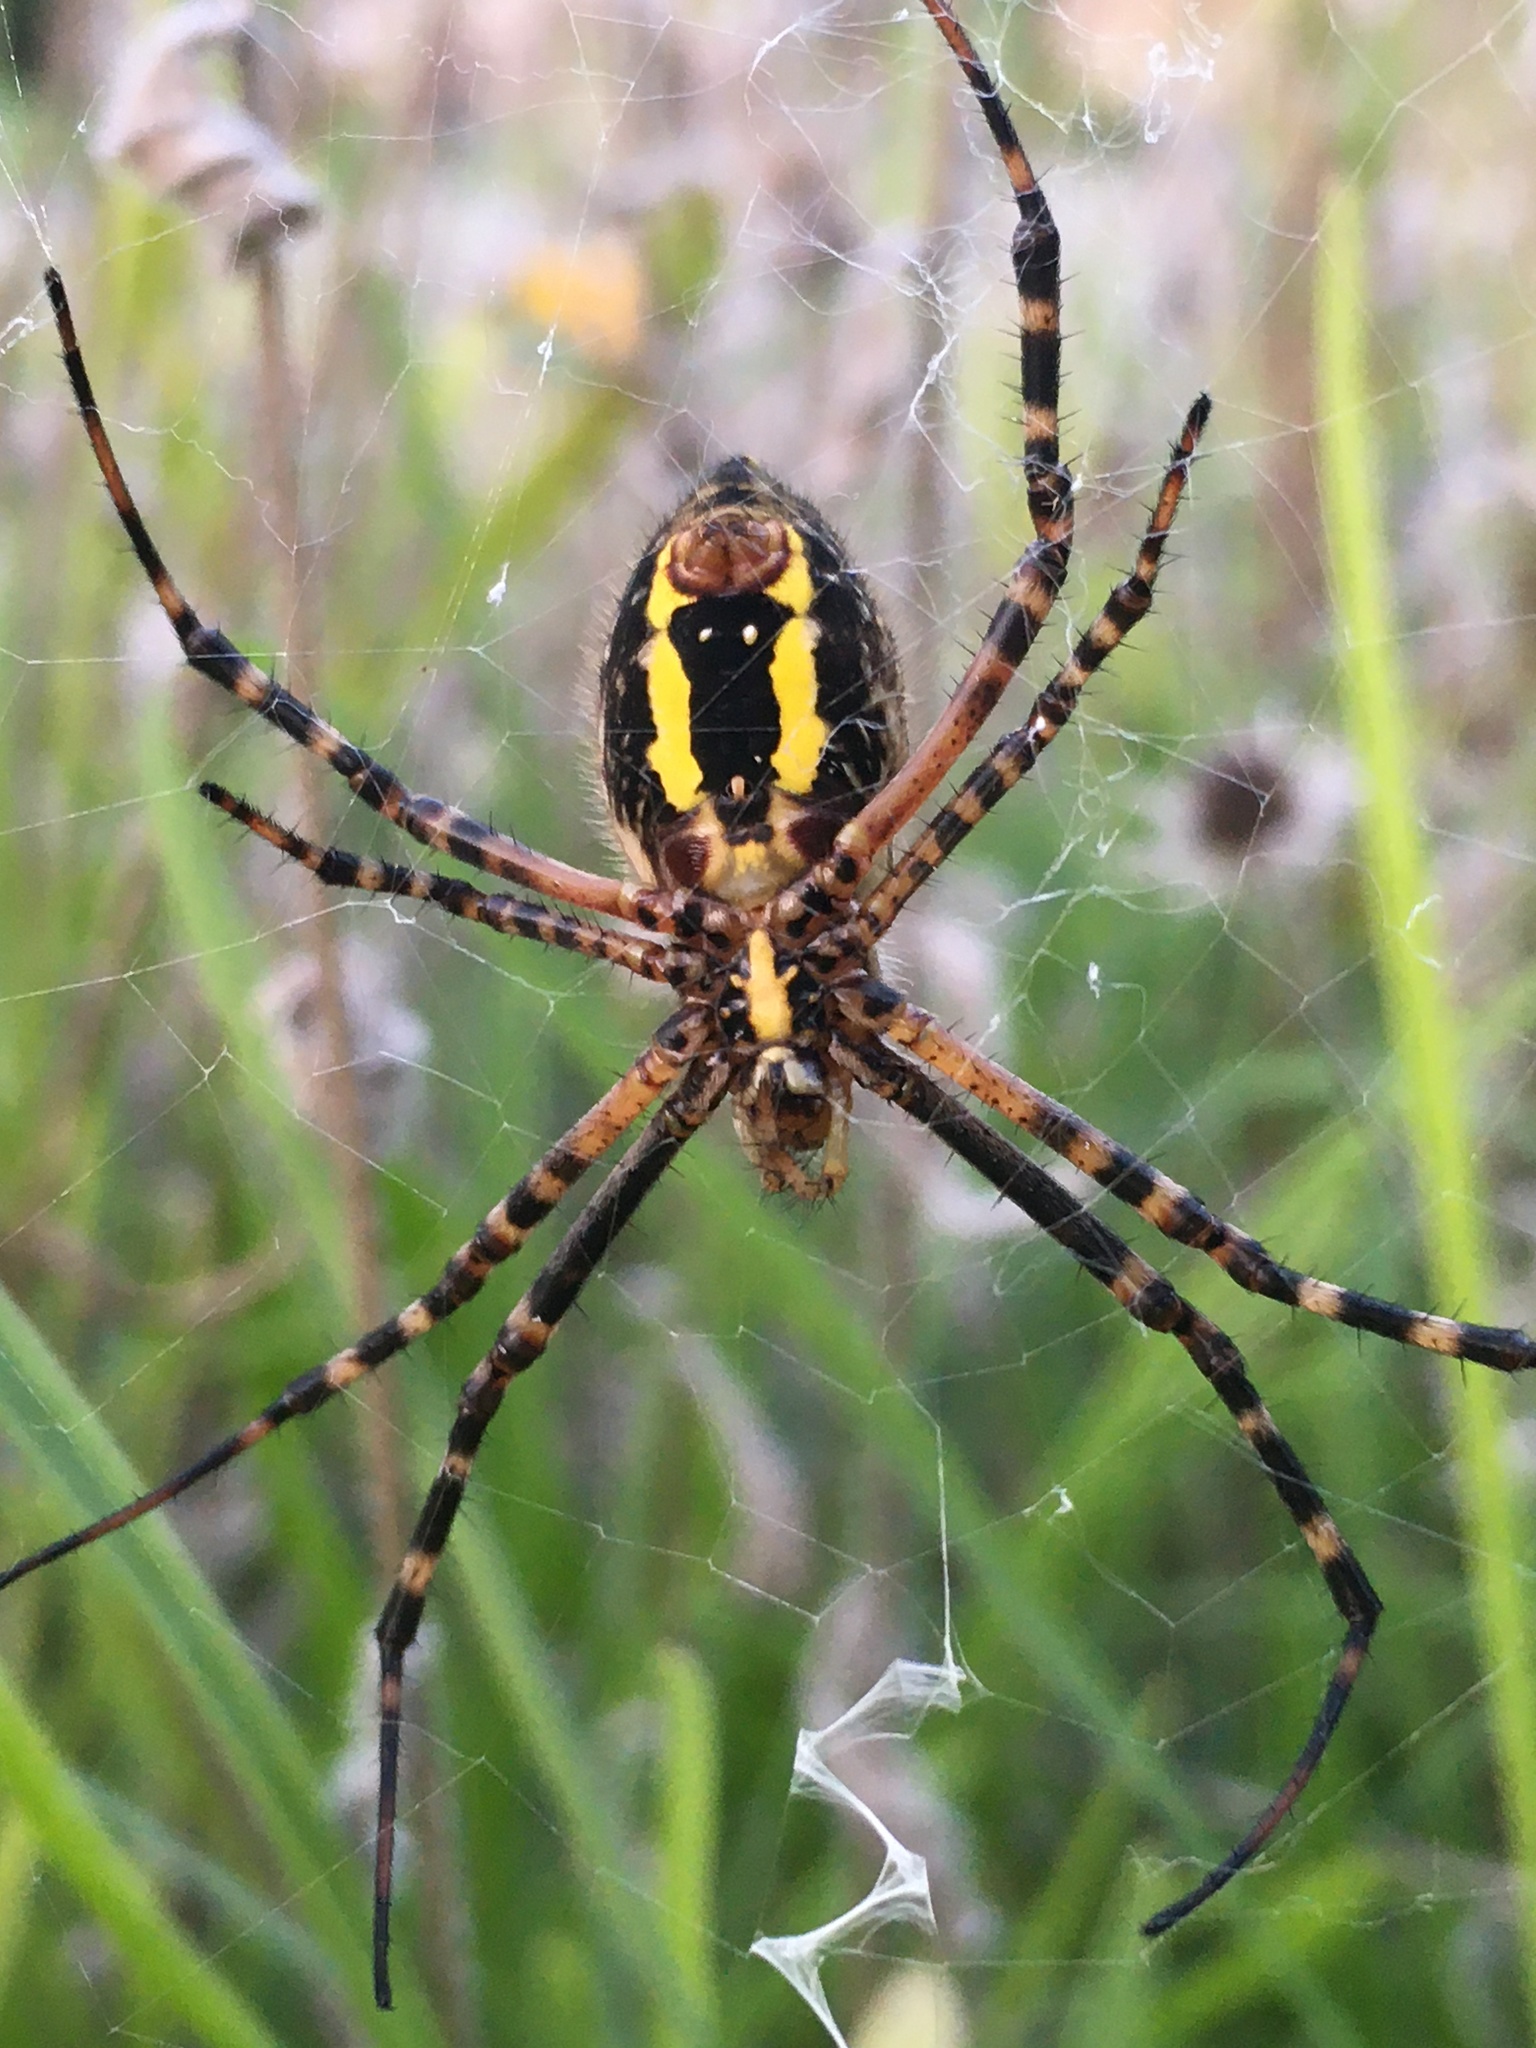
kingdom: Animalia
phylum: Arthropoda
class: Arachnida
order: Araneae
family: Araneidae
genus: Argiope
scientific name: Argiope trifasciata
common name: Banded garden spider
